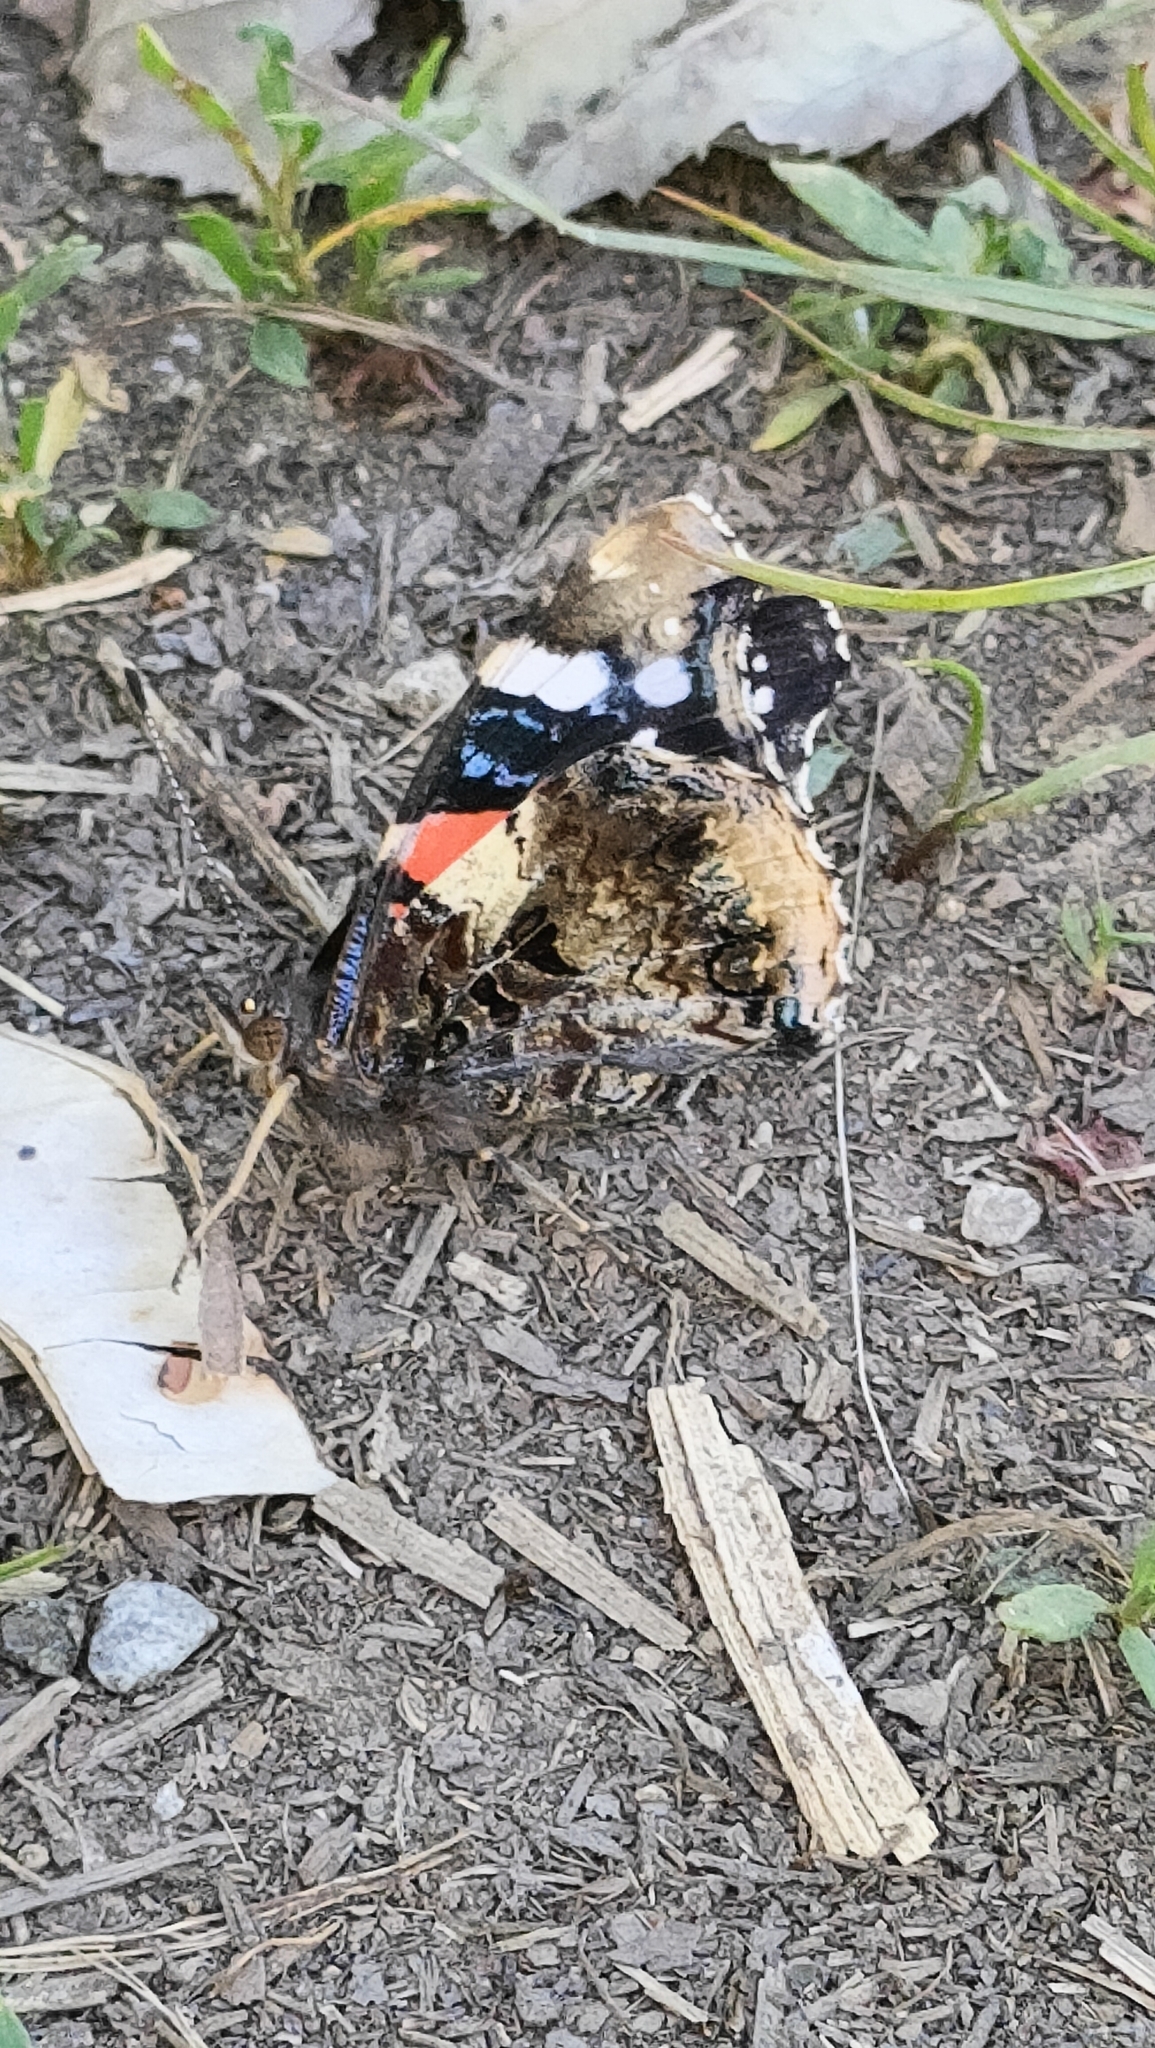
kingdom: Animalia
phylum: Arthropoda
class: Insecta
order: Lepidoptera
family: Nymphalidae
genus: Vanessa
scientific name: Vanessa atalanta
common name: Red admiral
